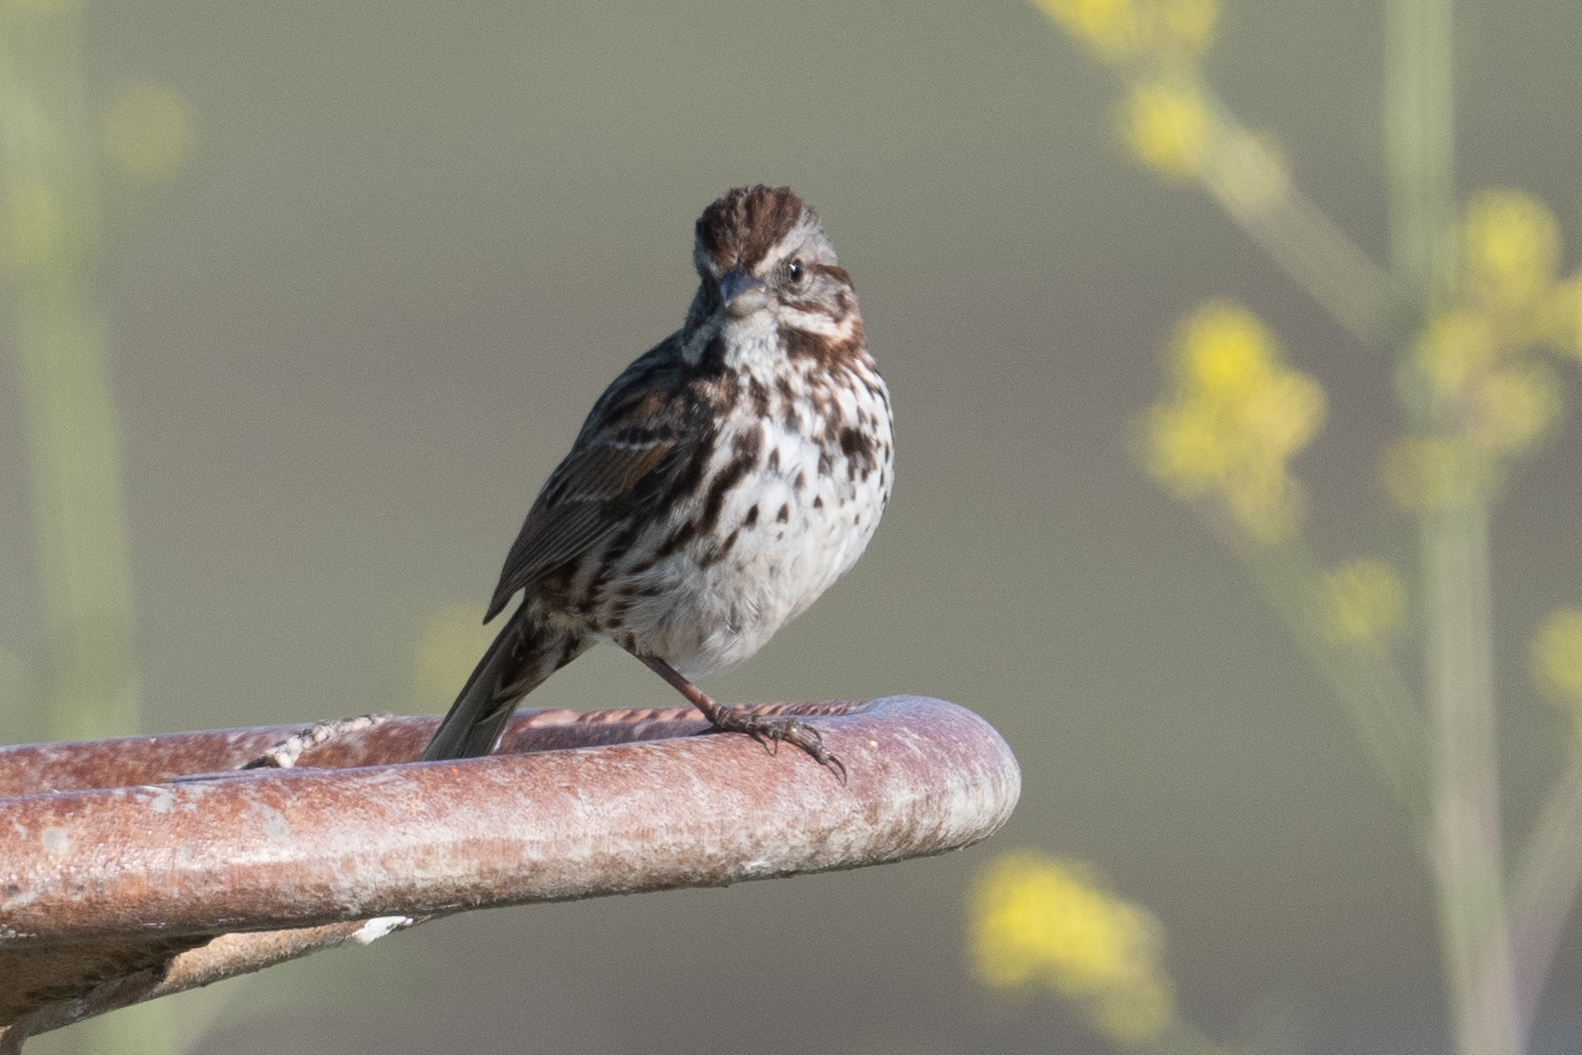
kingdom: Animalia
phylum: Chordata
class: Aves
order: Passeriformes
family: Passerellidae
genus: Melospiza
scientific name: Melospiza melodia
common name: Song sparrow
